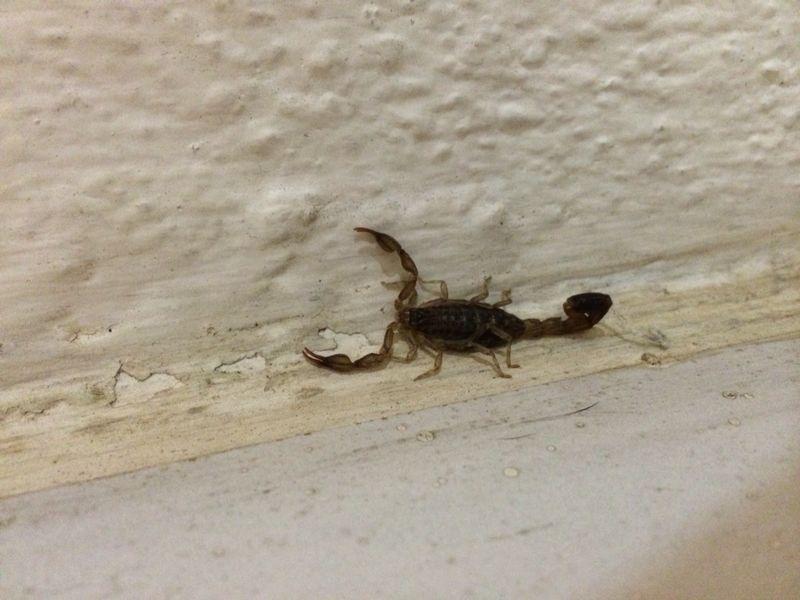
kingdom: Animalia
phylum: Arthropoda
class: Arachnida
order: Scorpiones
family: Buthidae
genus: Uroplectes
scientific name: Uroplectes lineatus
